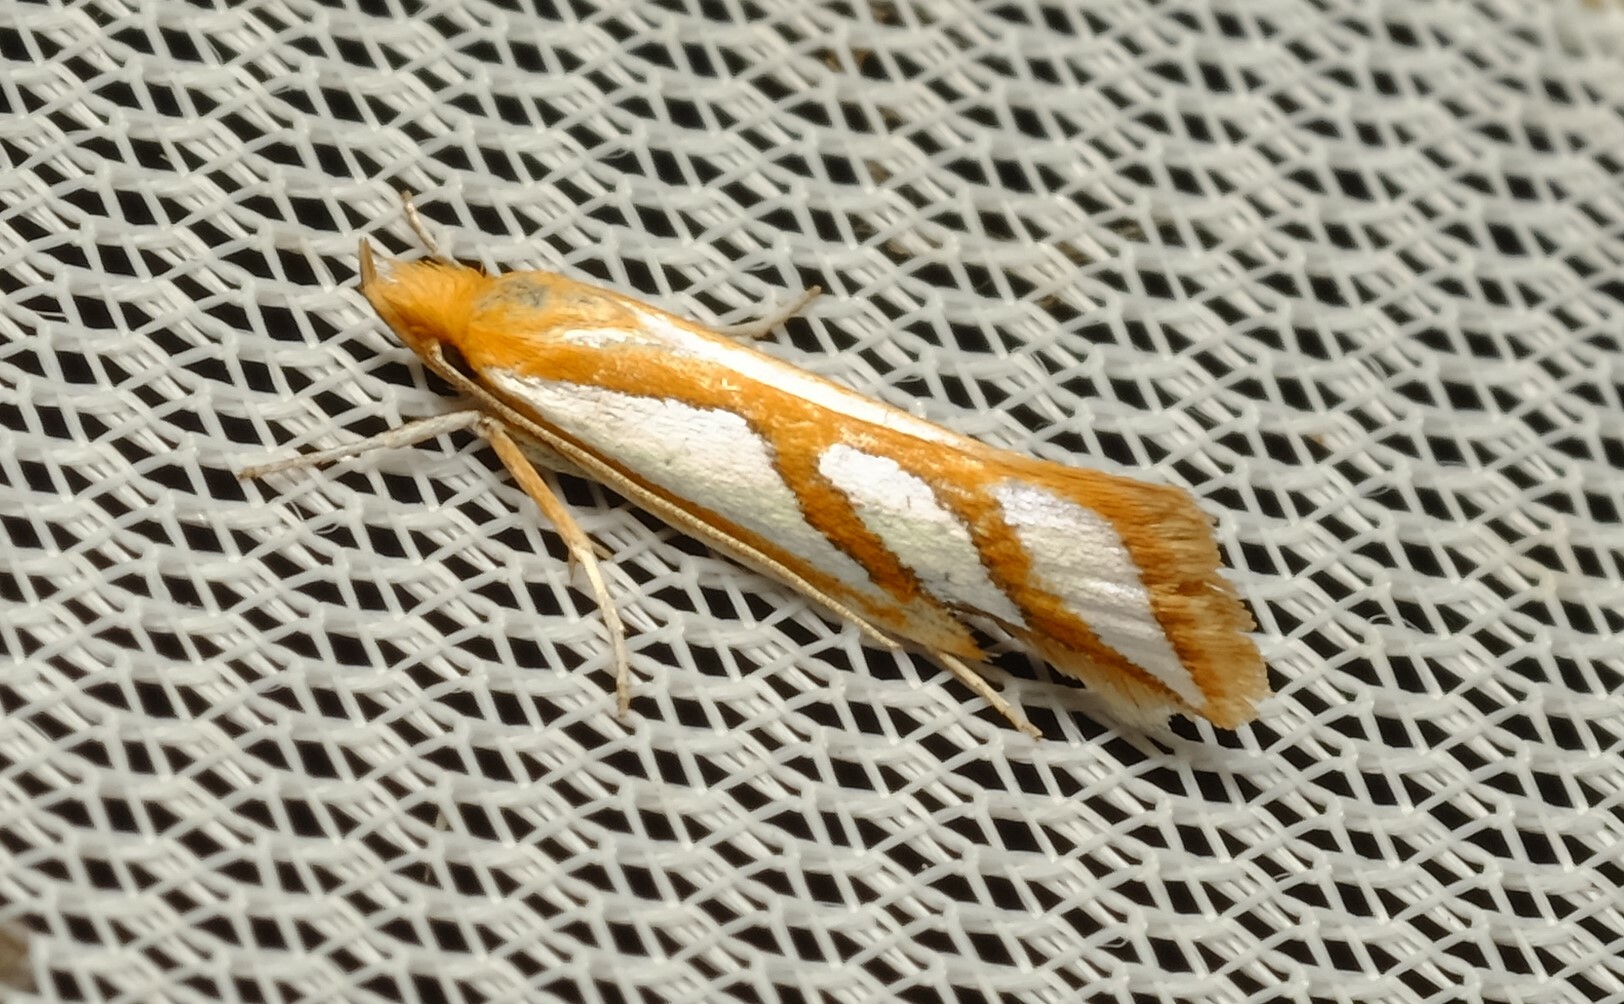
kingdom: Animalia
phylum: Arthropoda
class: Insecta
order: Lepidoptera
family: Depressariidae
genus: Thudaca
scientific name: Thudaca obliquella
